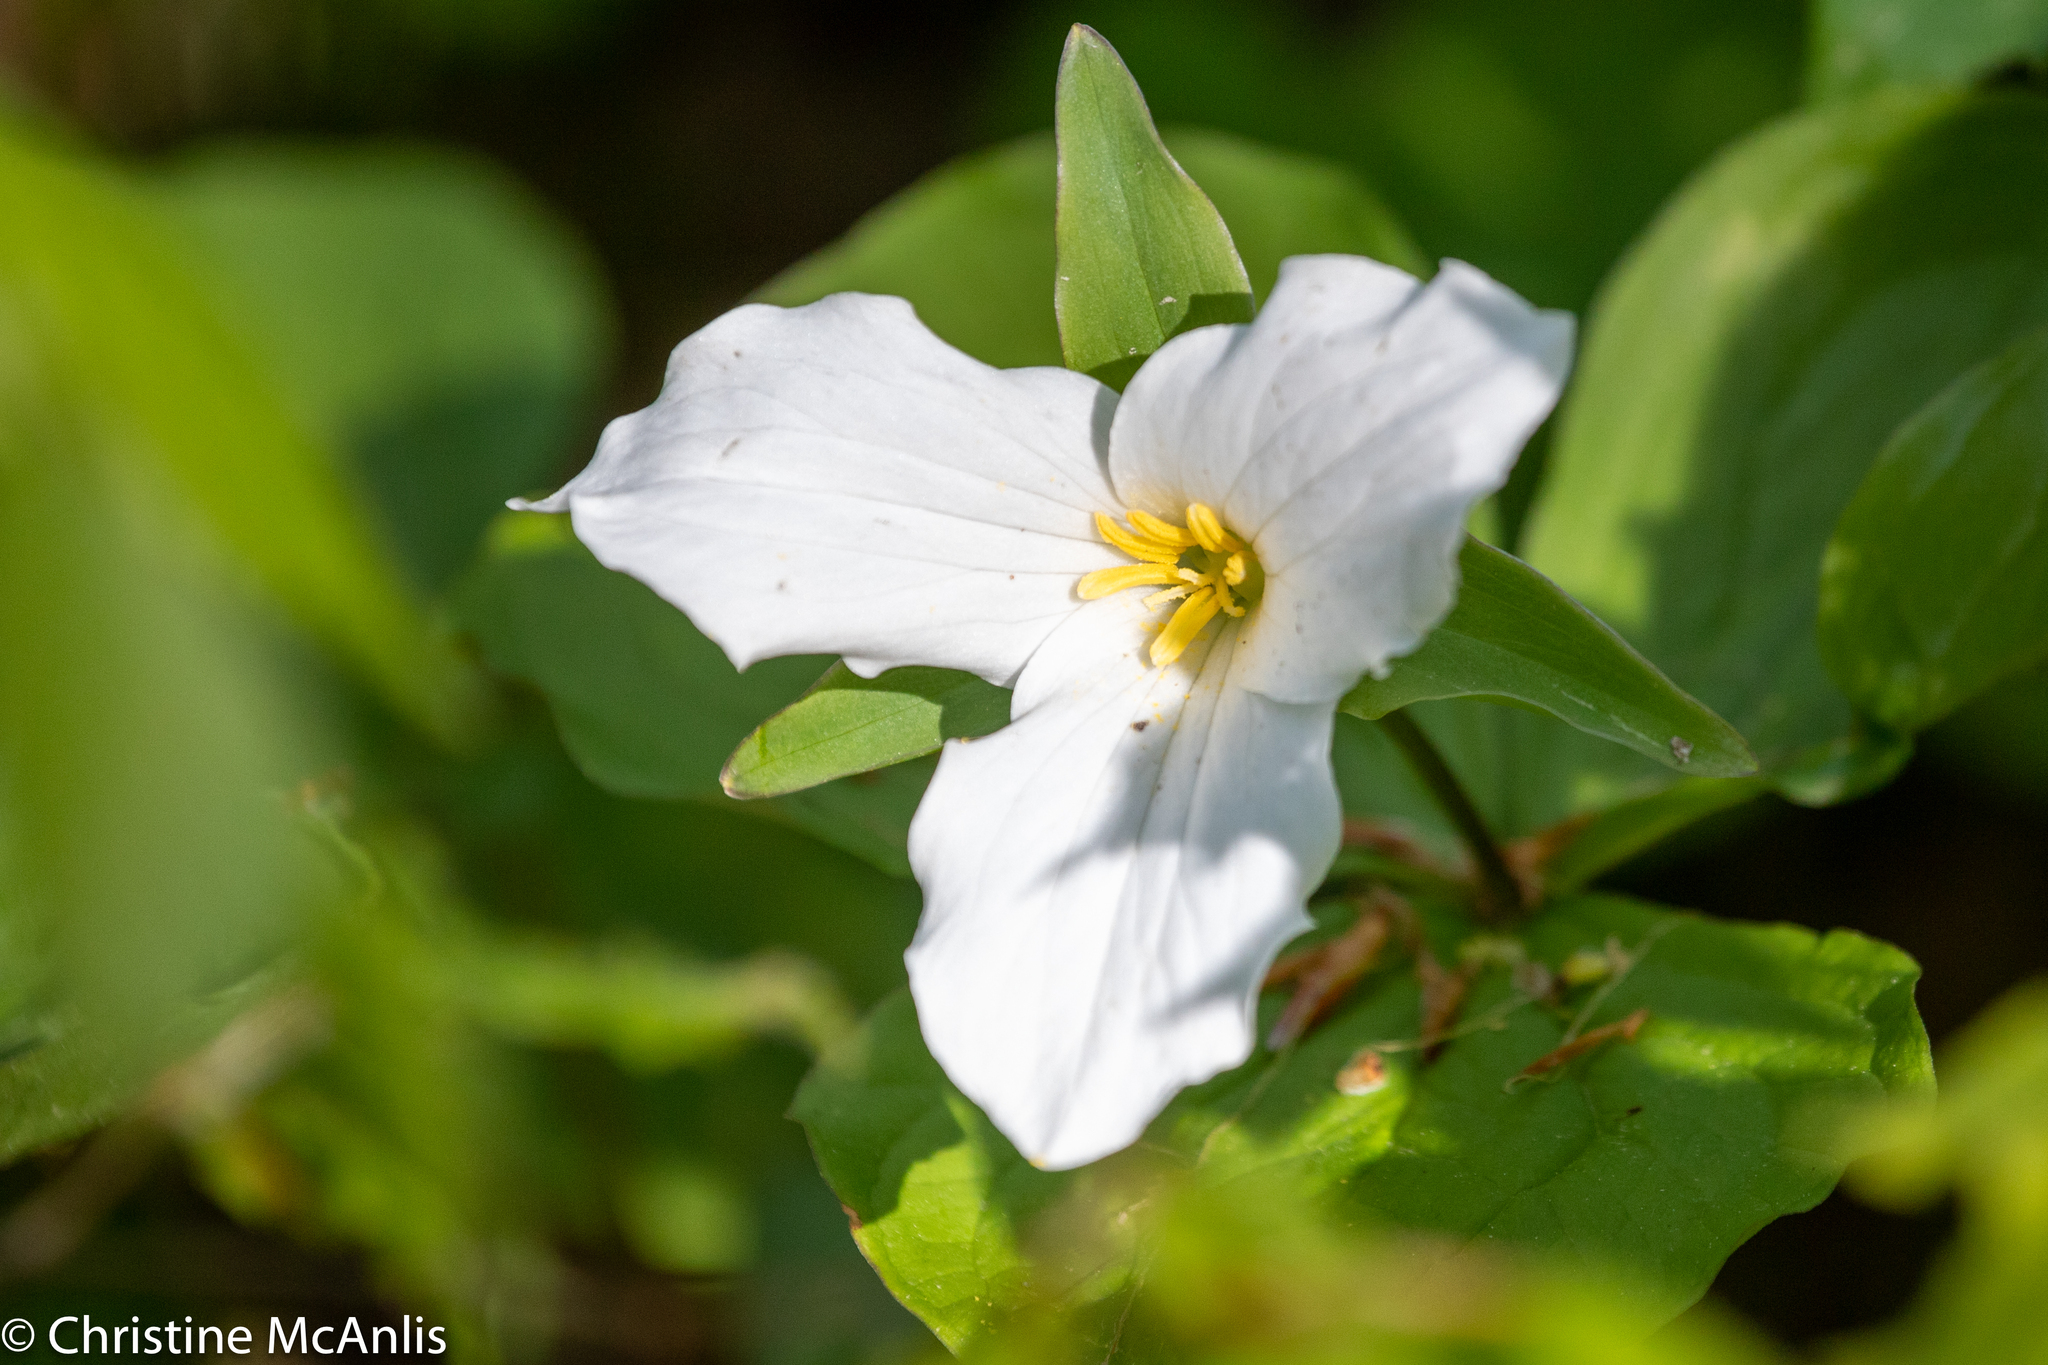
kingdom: Plantae
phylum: Tracheophyta
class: Liliopsida
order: Liliales
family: Melanthiaceae
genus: Trillium
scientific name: Trillium grandiflorum
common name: Great white trillium
